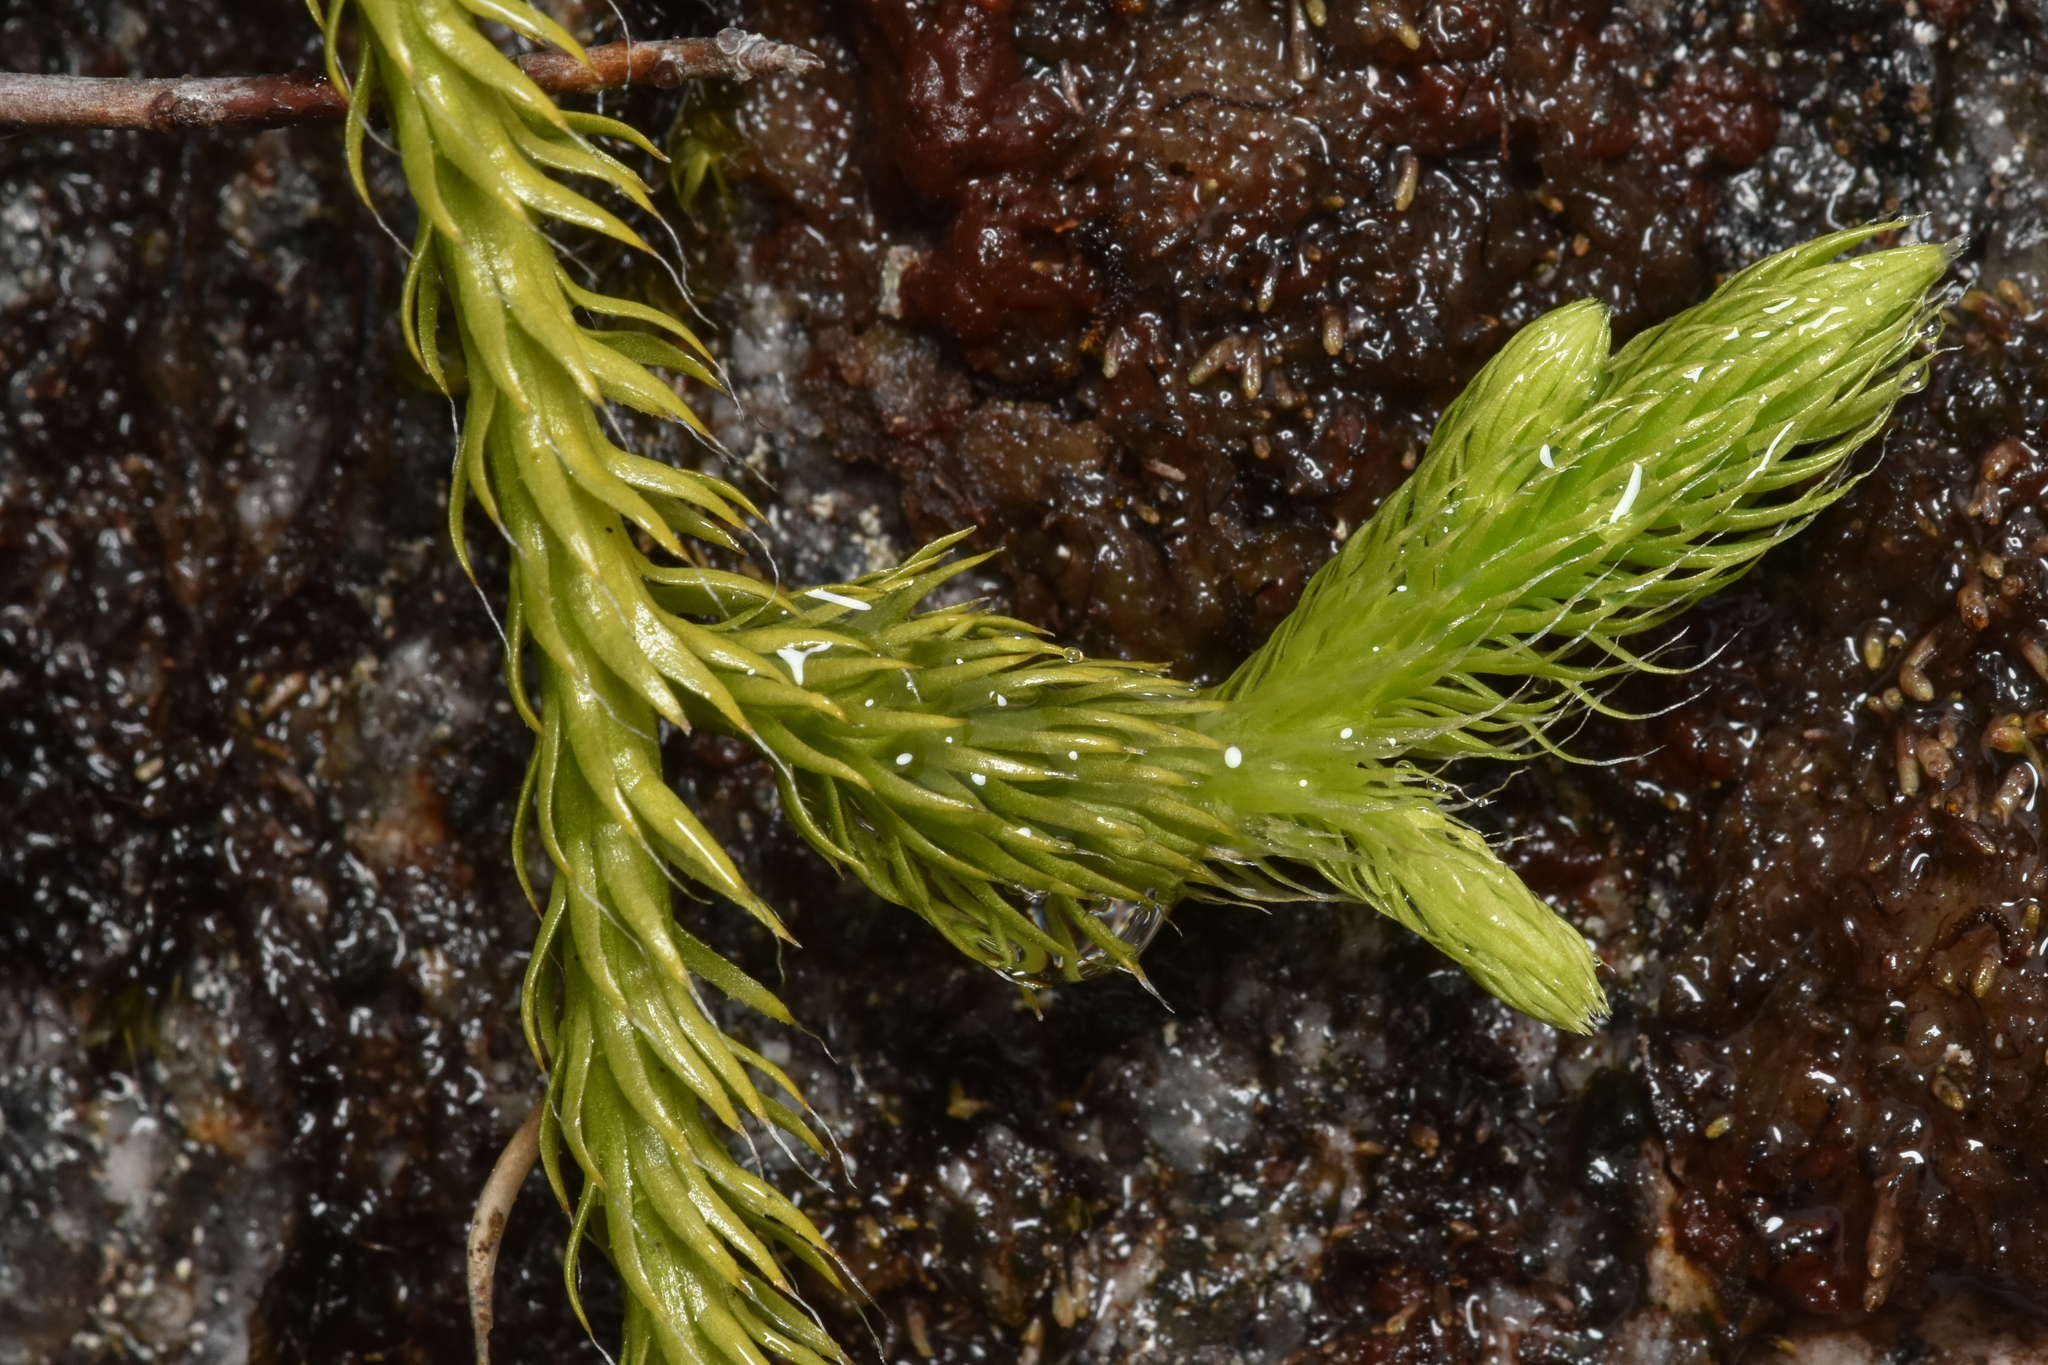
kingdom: Plantae
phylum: Tracheophyta
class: Lycopodiopsida
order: Lycopodiales
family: Lycopodiaceae
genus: Lycopodium
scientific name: Lycopodium clavatum
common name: Stag's-horn clubmoss
